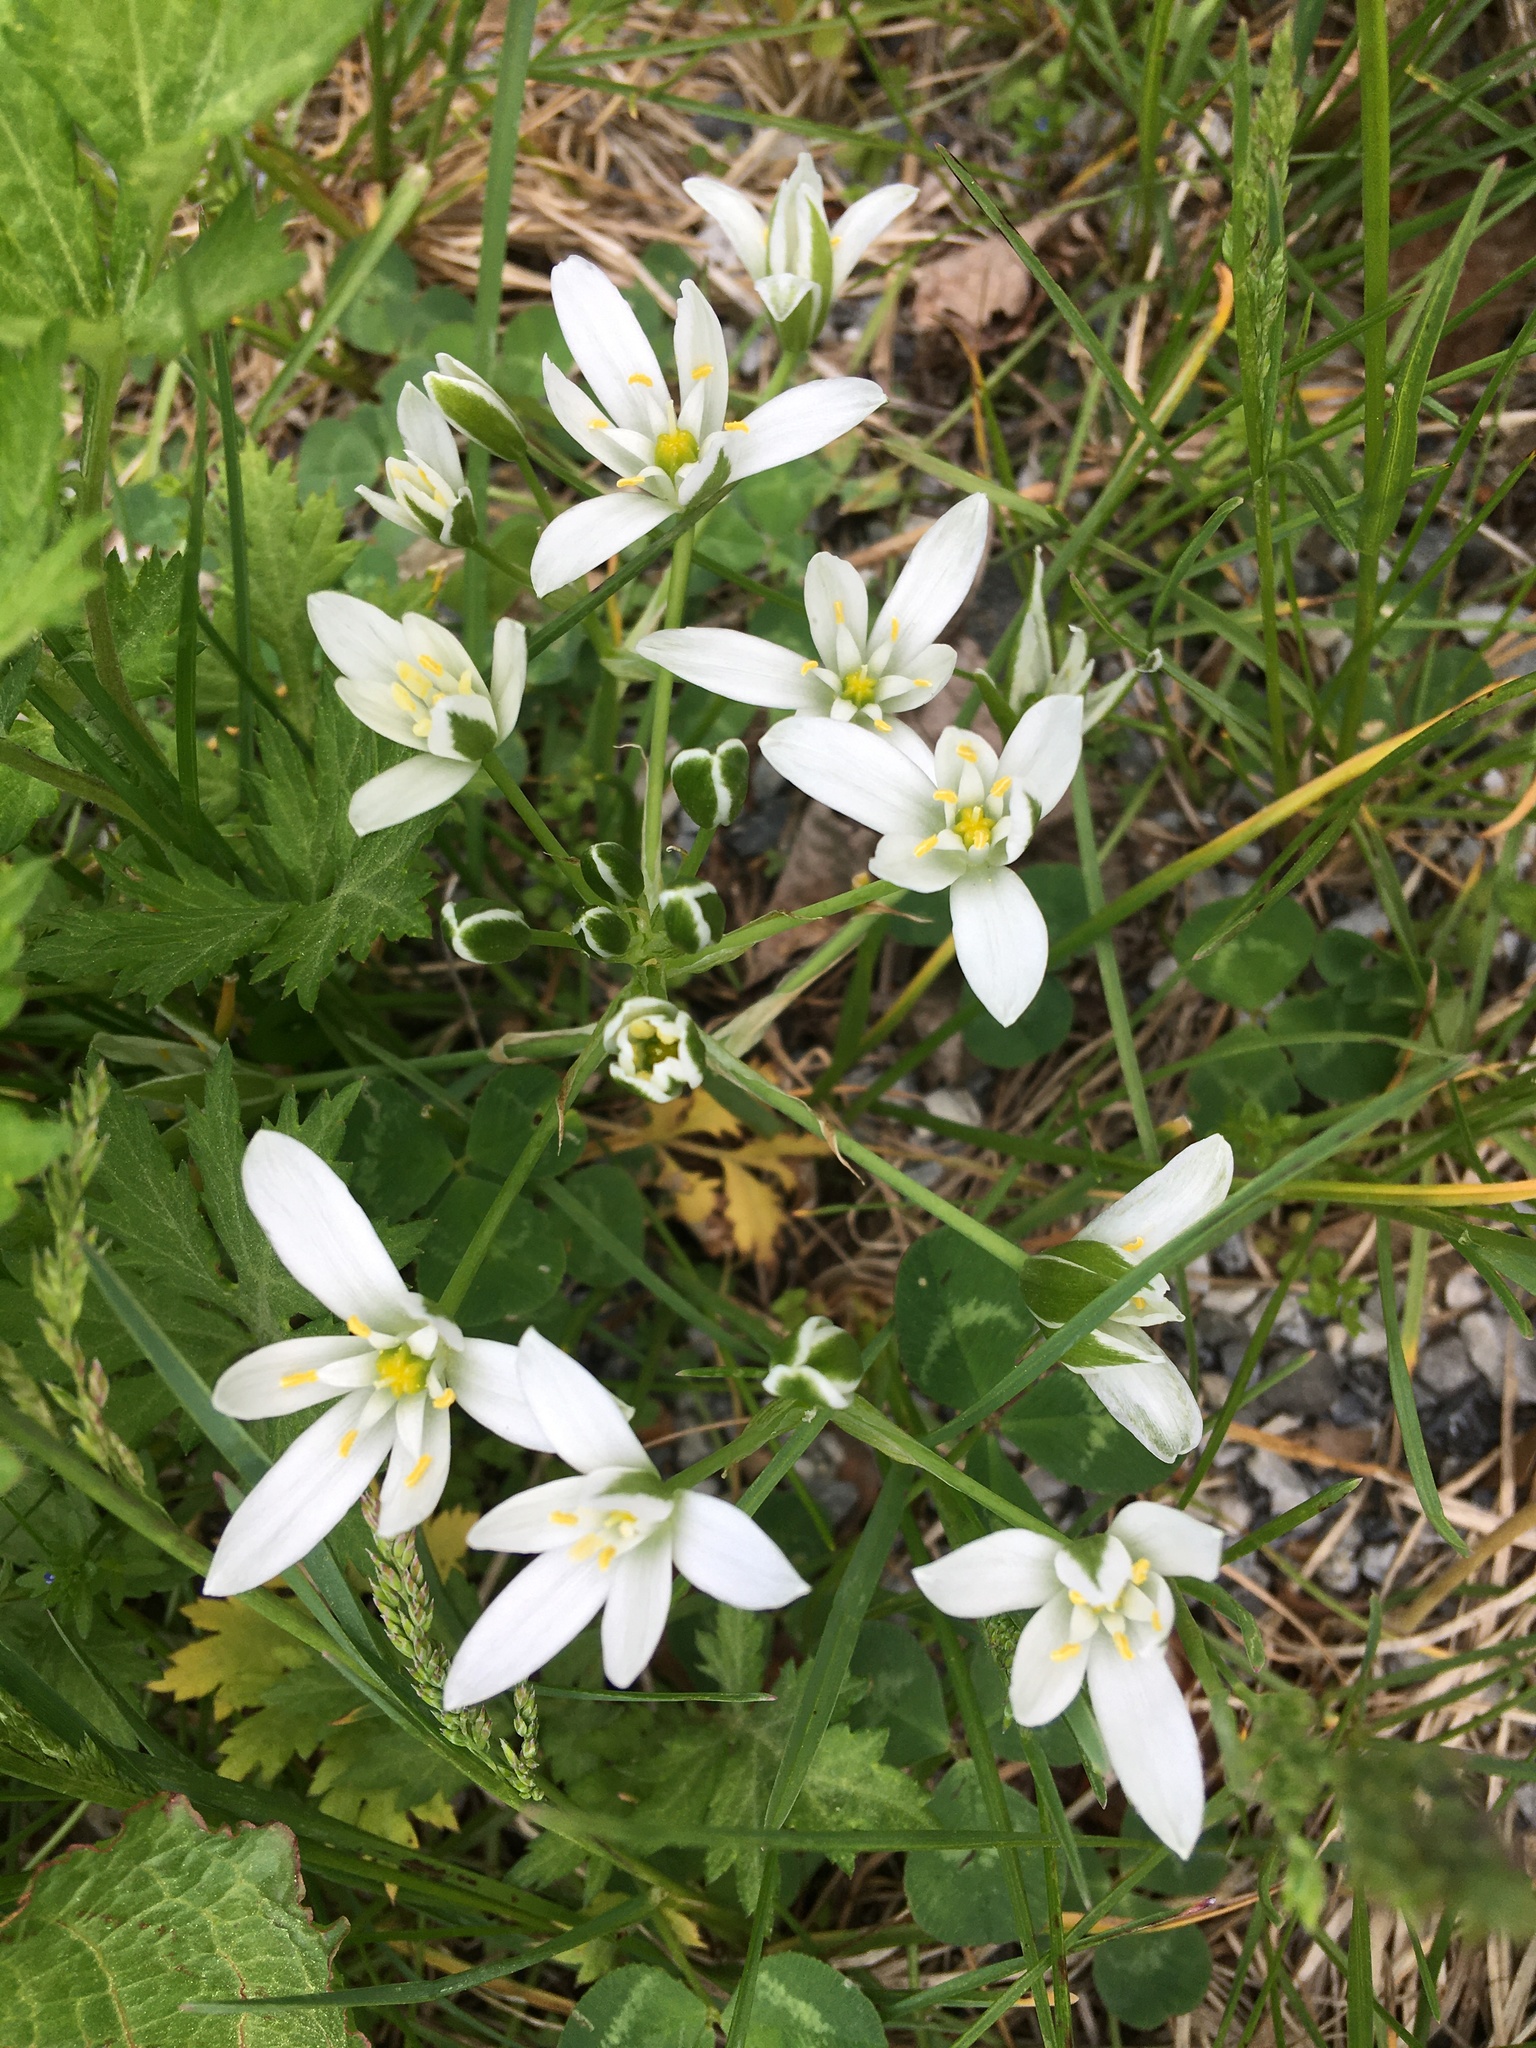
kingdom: Plantae
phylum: Tracheophyta
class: Liliopsida
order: Asparagales
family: Asparagaceae
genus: Ornithogalum
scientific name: Ornithogalum umbellatum
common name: Garden star-of-bethlehem
